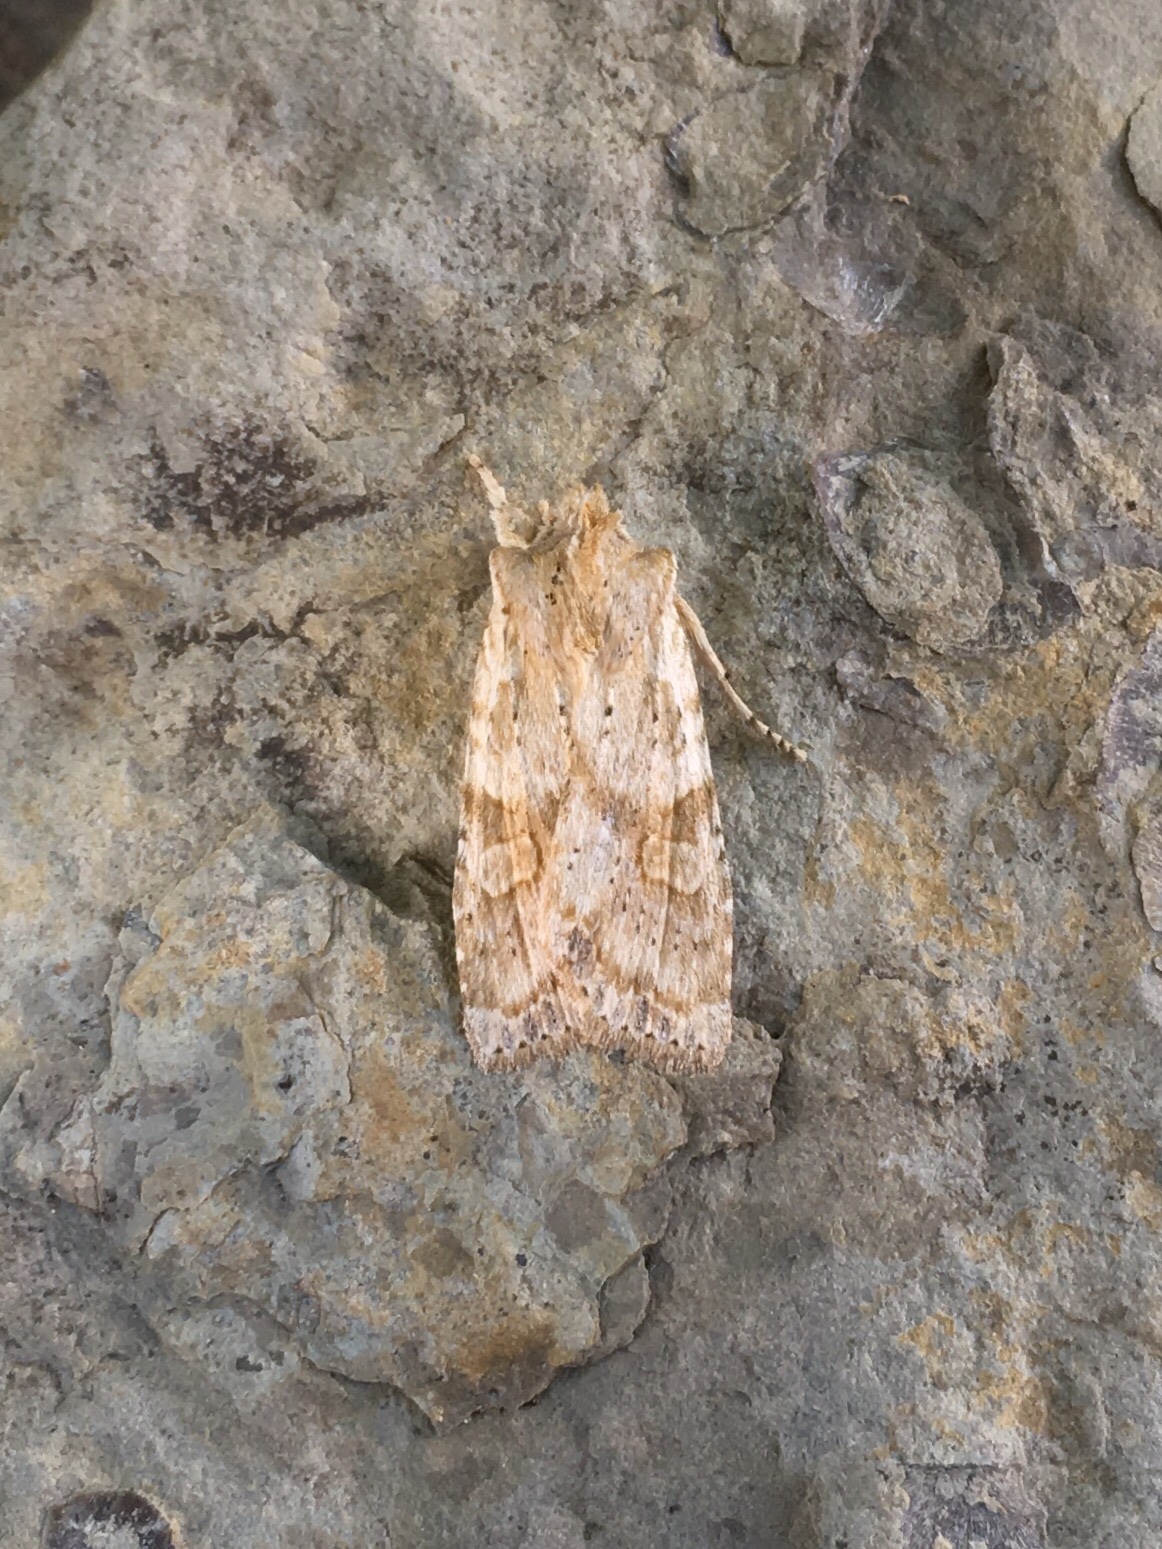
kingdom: Animalia
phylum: Arthropoda
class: Insecta
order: Lepidoptera
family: Noctuidae
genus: Lithophane
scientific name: Lithophane bethunei
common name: Bethune's pinion moth
